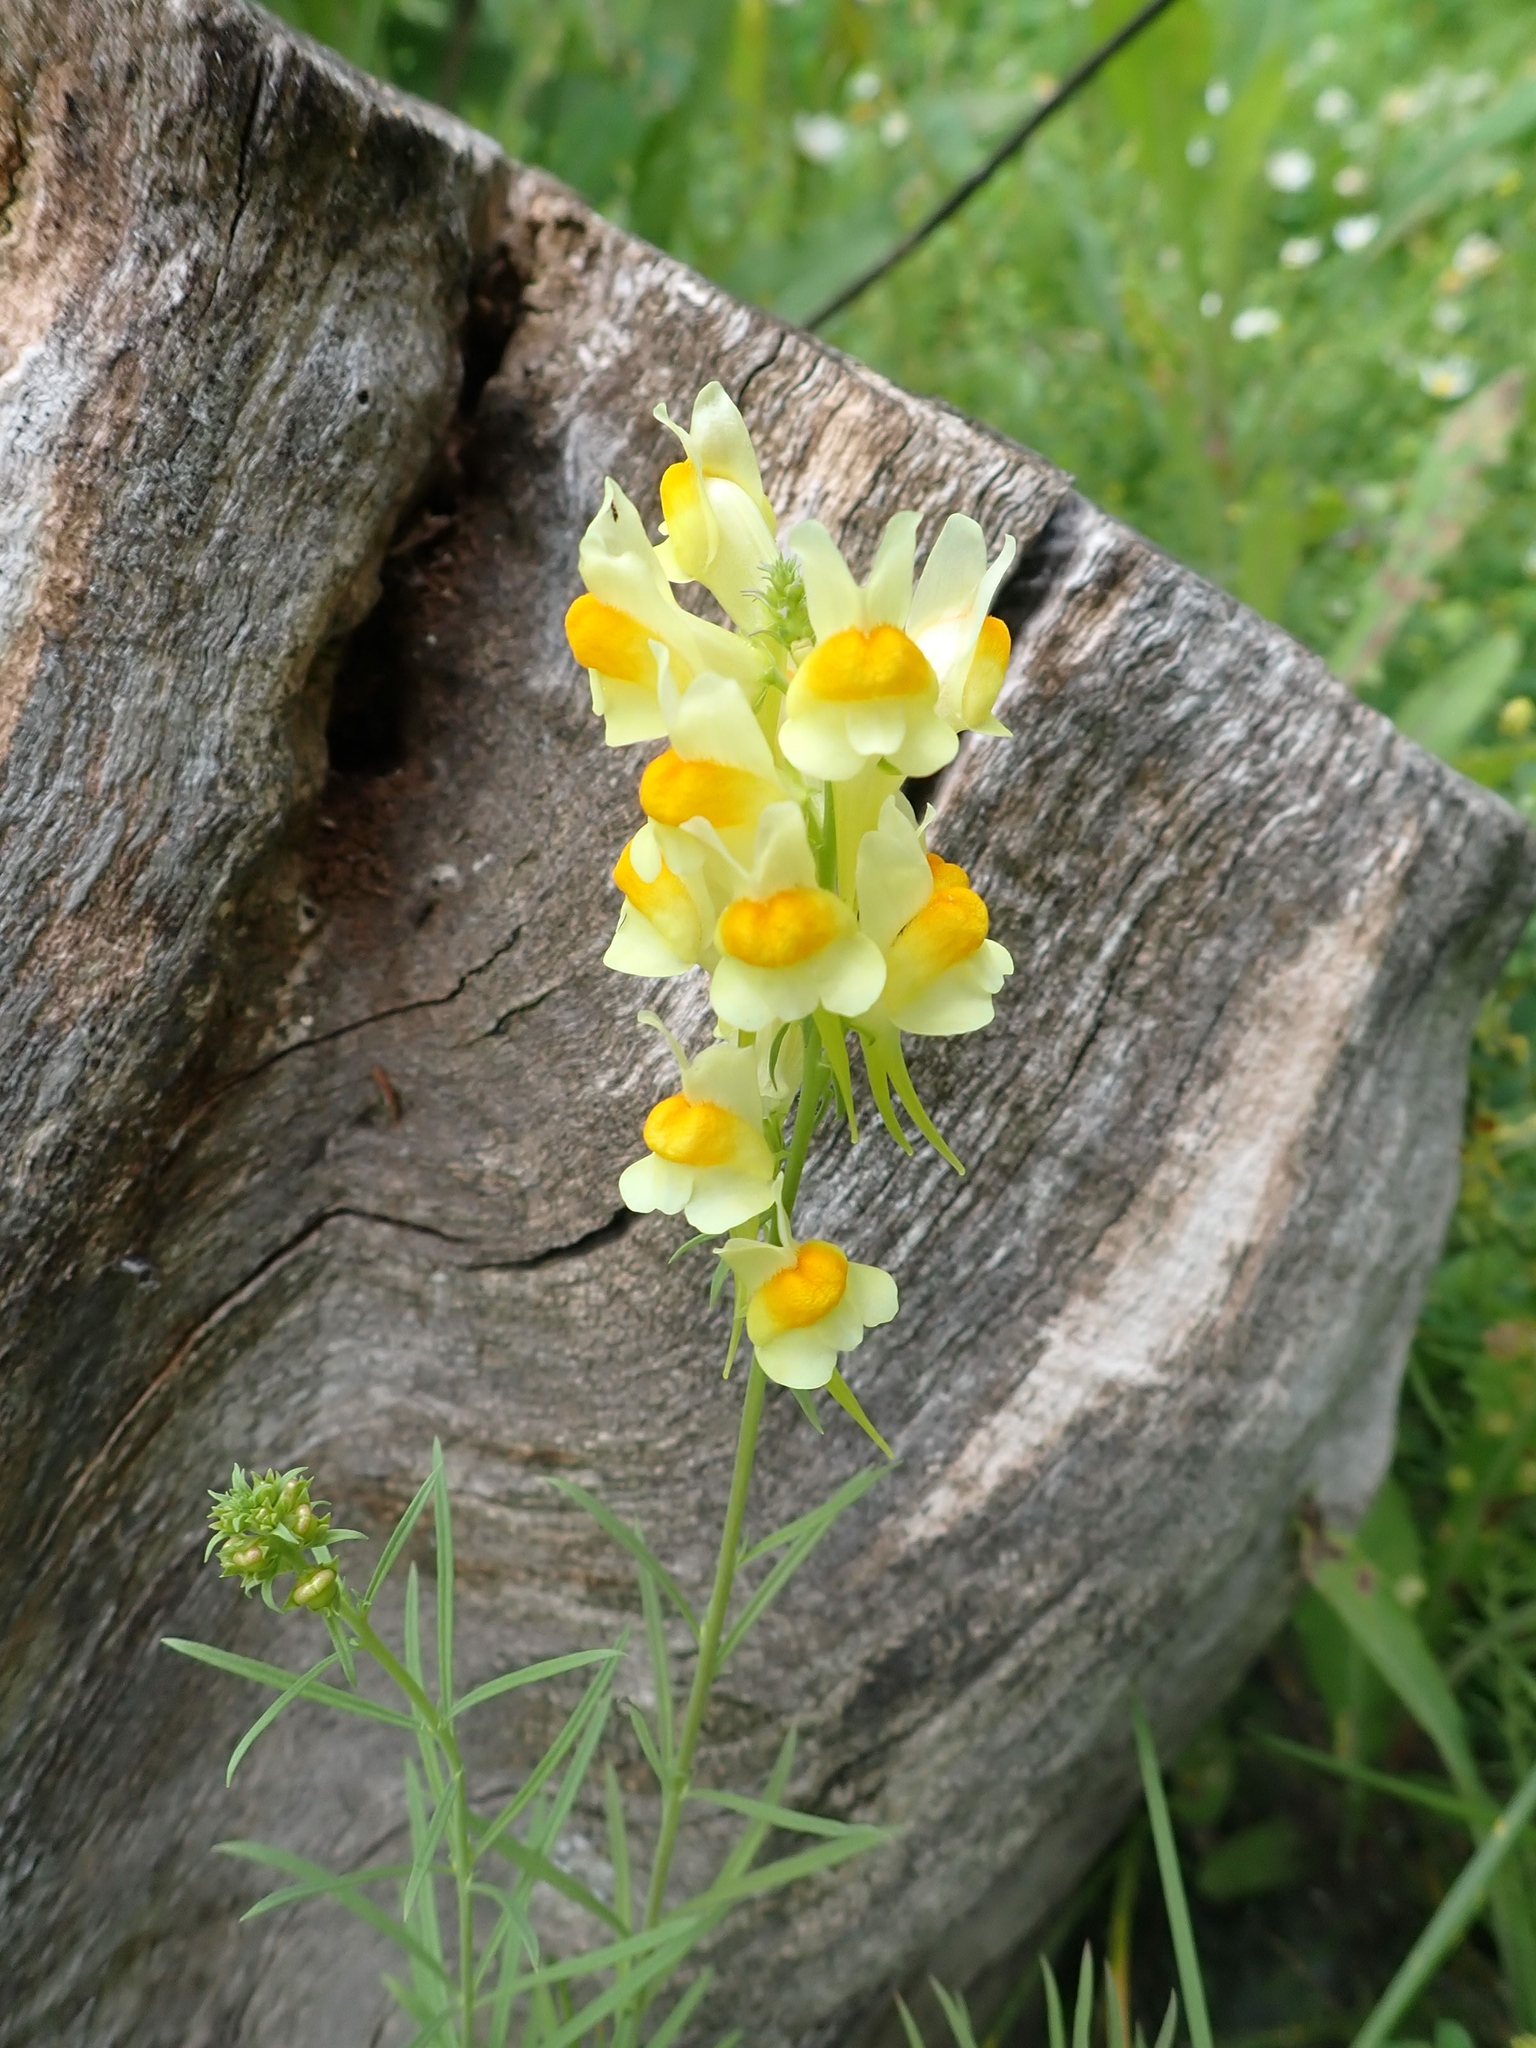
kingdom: Plantae
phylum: Tracheophyta
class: Magnoliopsida
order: Lamiales
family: Plantaginaceae
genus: Linaria
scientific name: Linaria vulgaris
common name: Butter and eggs
